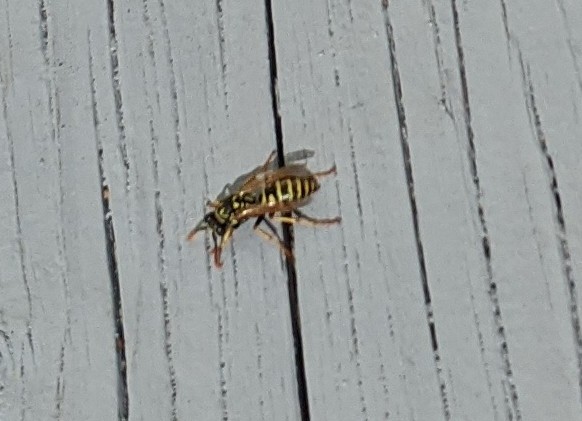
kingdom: Animalia
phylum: Arthropoda
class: Insecta
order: Hymenoptera
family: Eumenidae
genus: Polistes
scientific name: Polistes dominula
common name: Paper wasp
